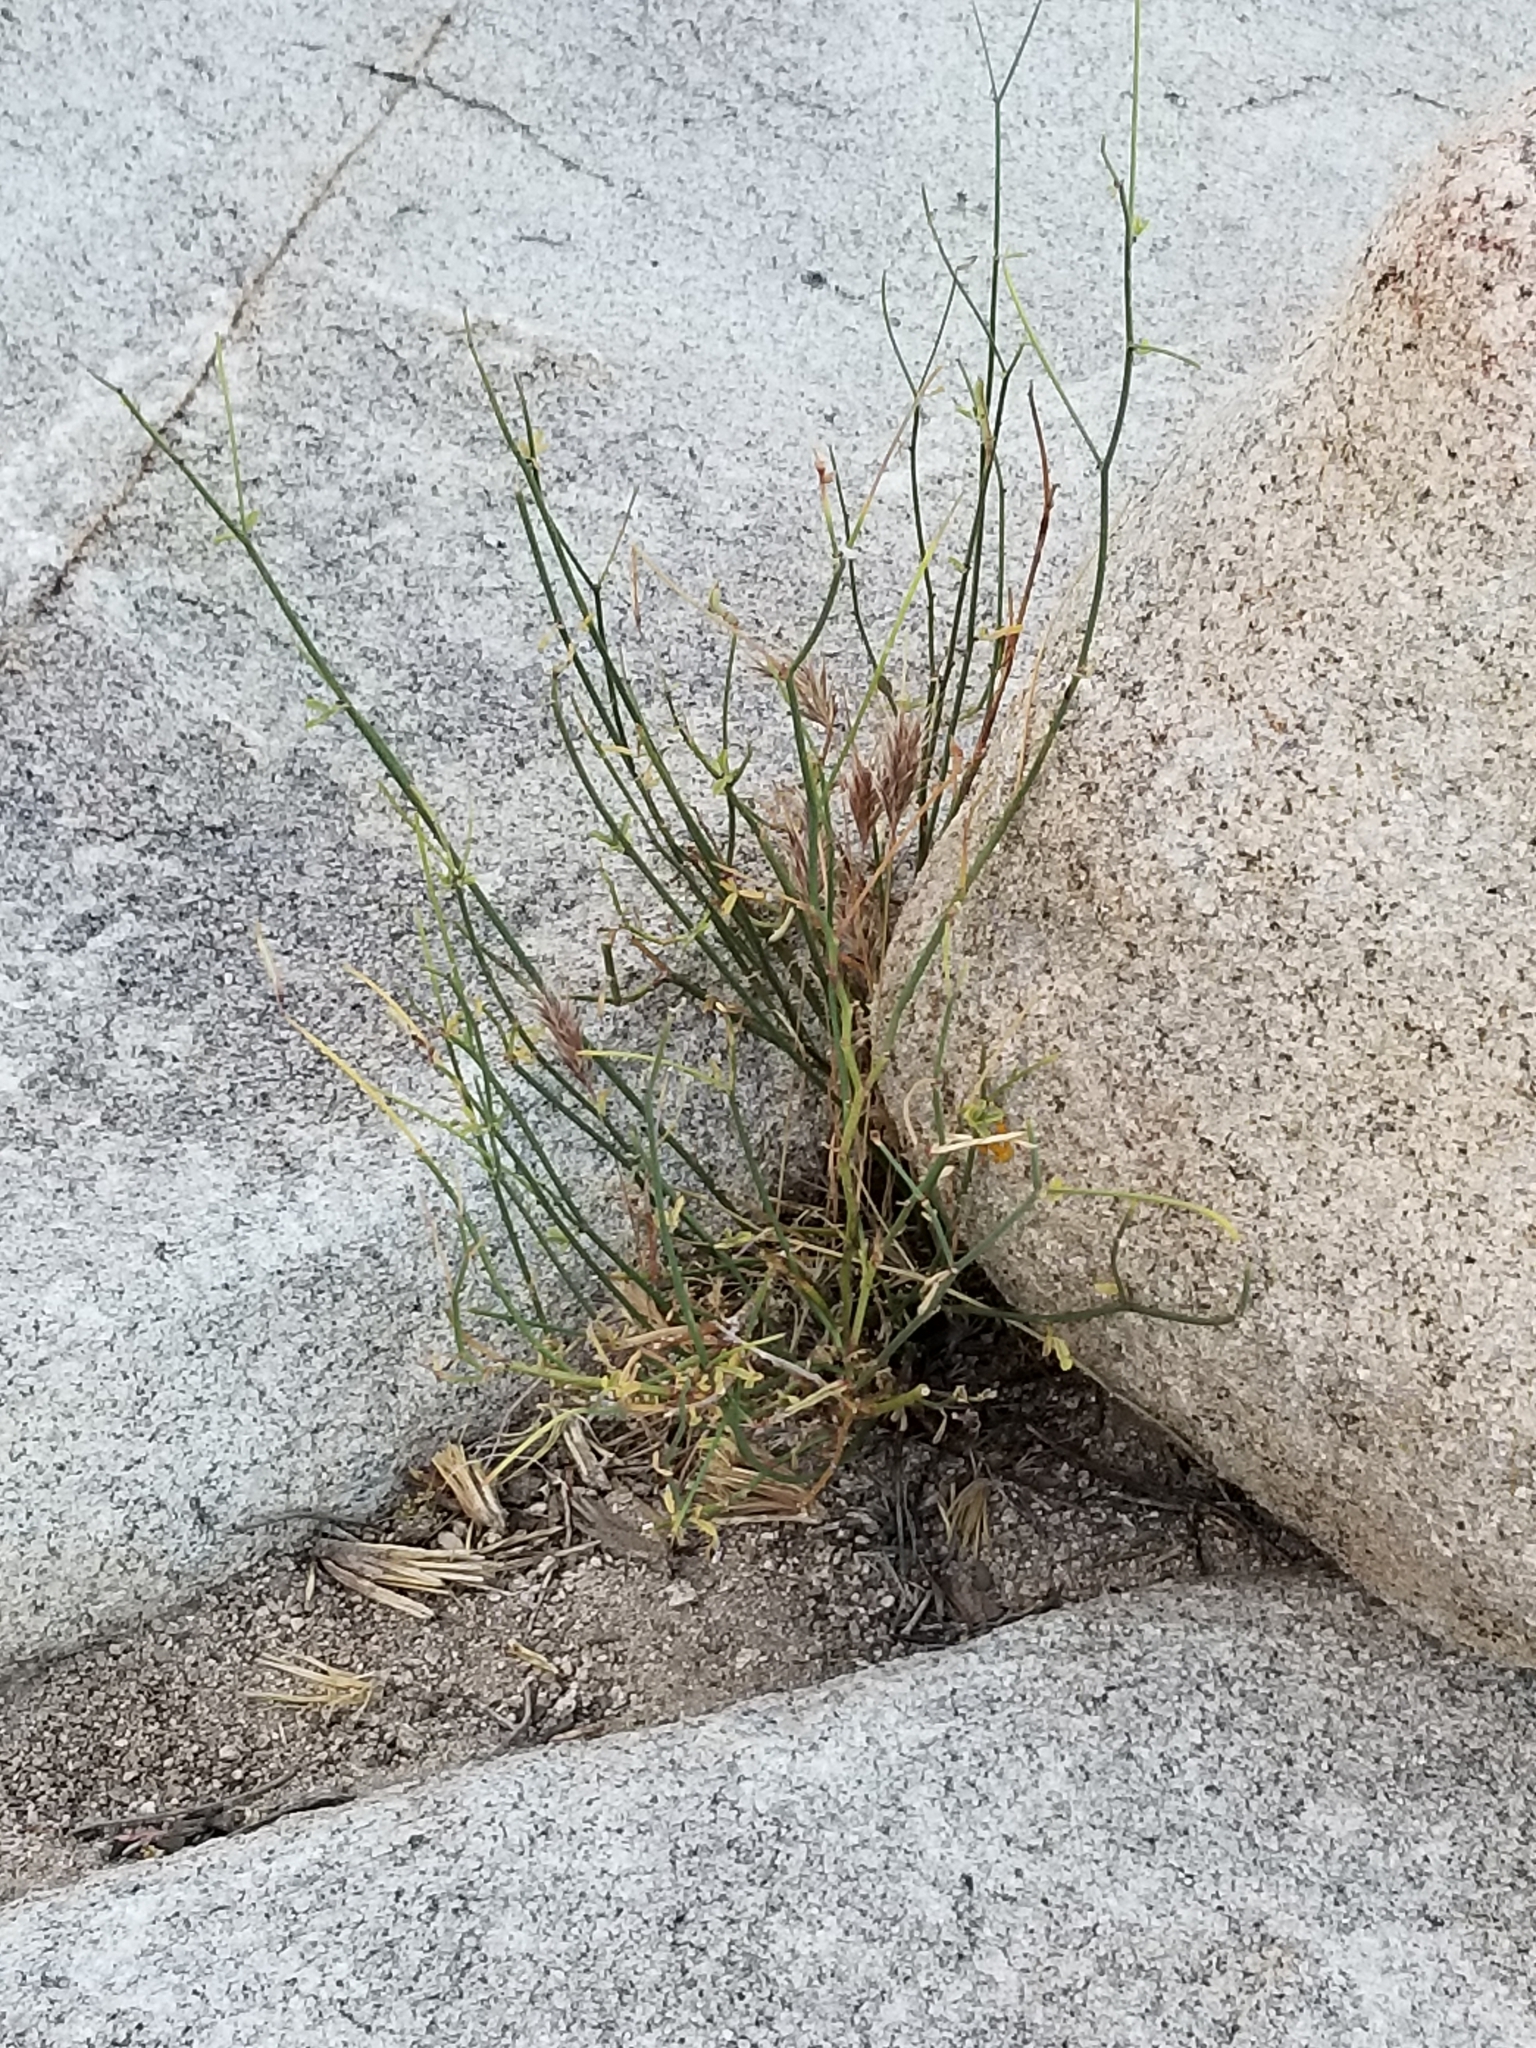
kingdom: Plantae
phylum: Tracheophyta
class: Magnoliopsida
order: Fabales
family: Fabaceae
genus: Acmispon
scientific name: Acmispon rigidus
